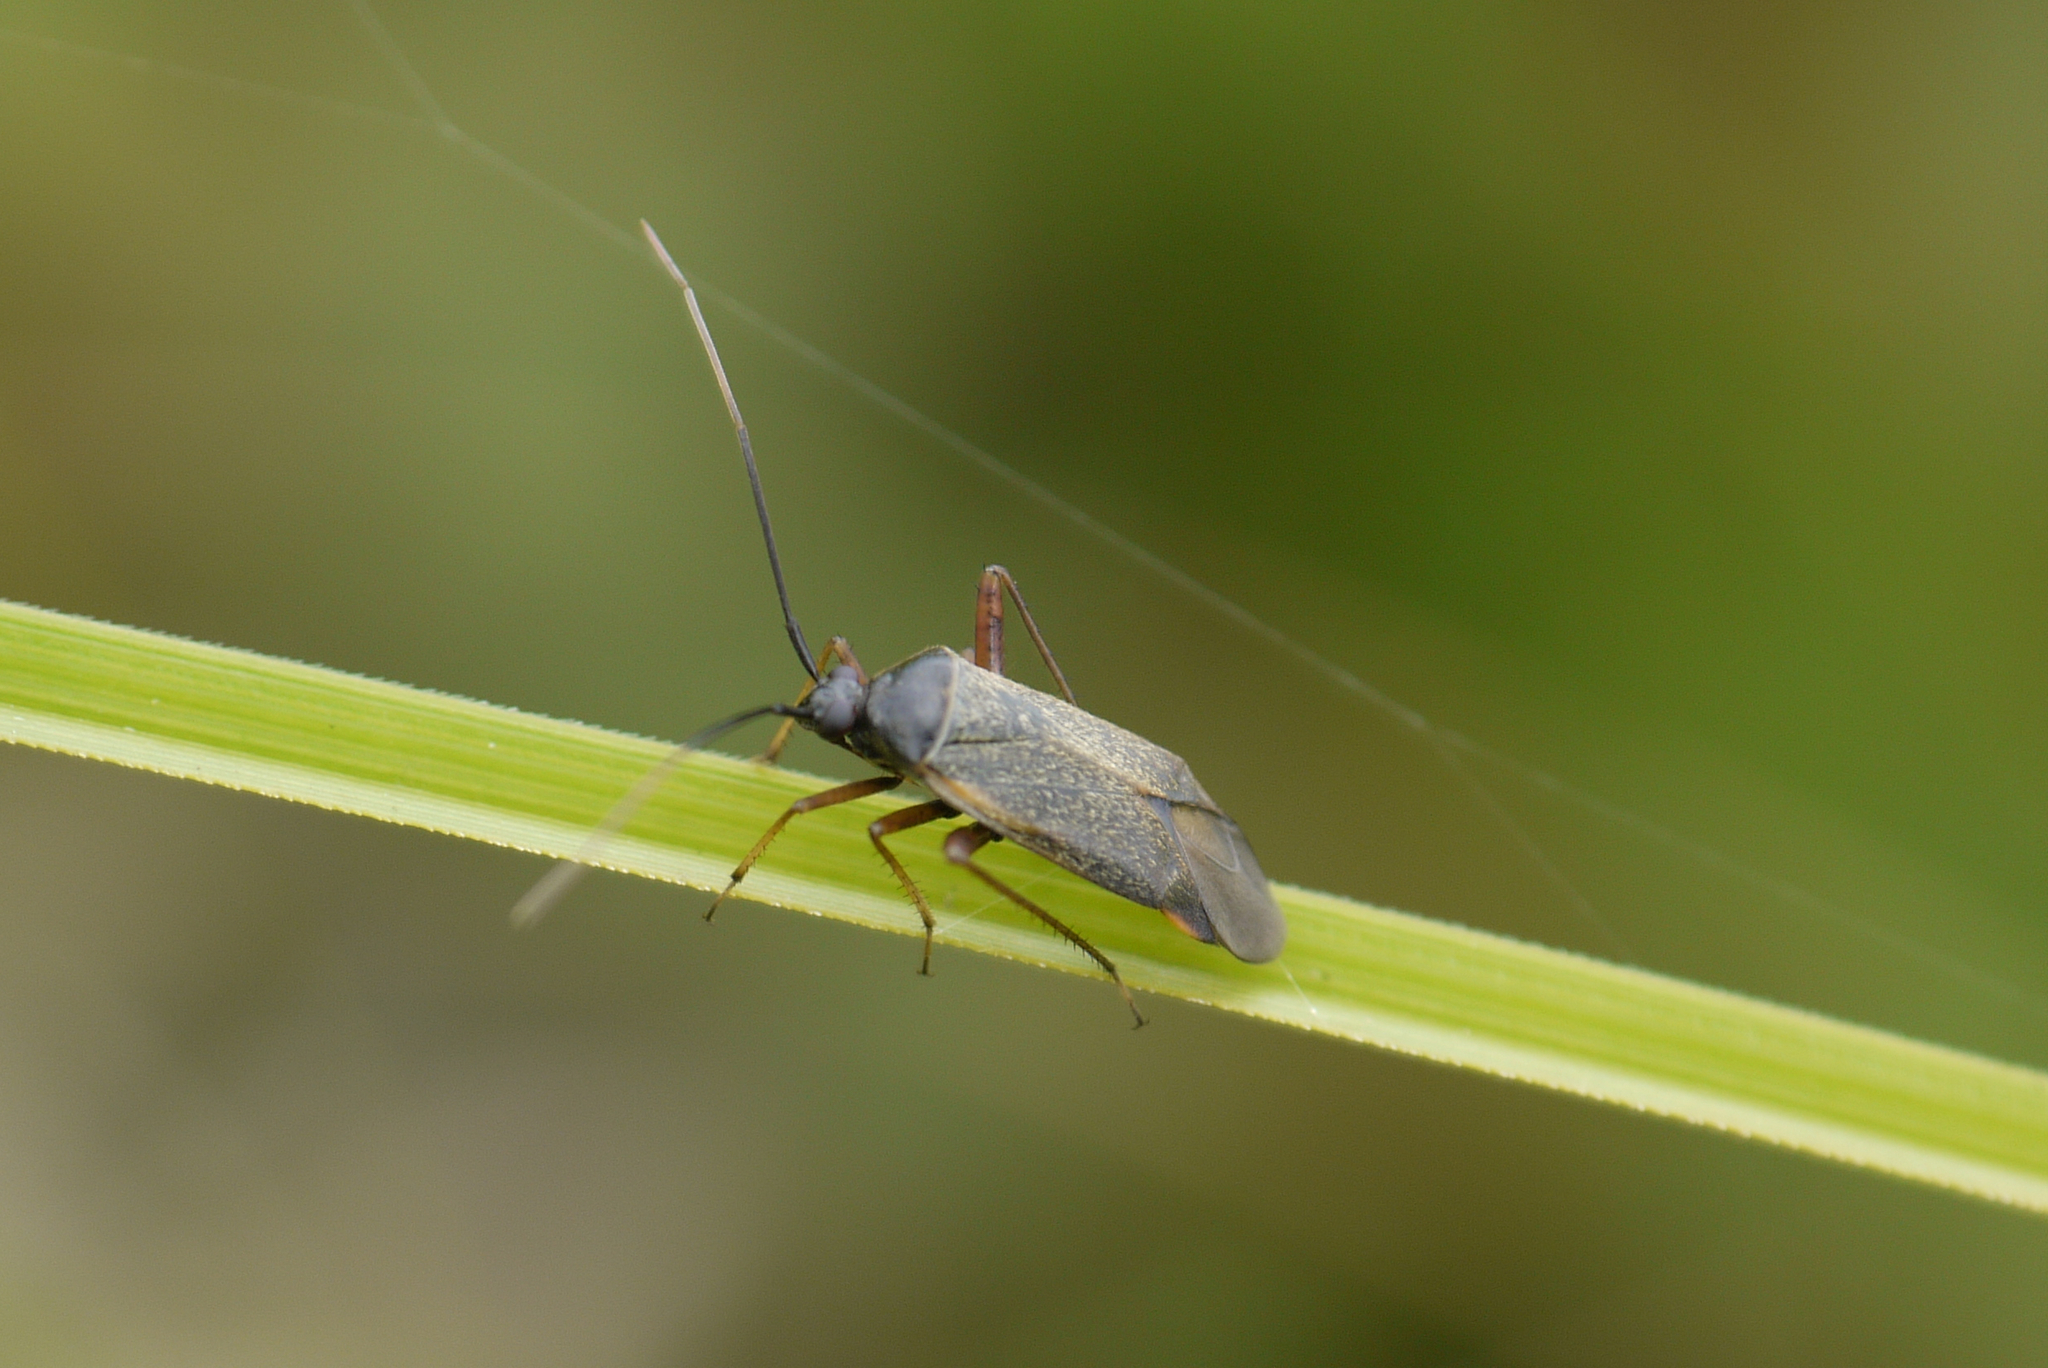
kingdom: Animalia
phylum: Arthropoda
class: Insecta
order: Hemiptera
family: Miridae
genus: Adelphocoris
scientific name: Adelphocoris seticornis
